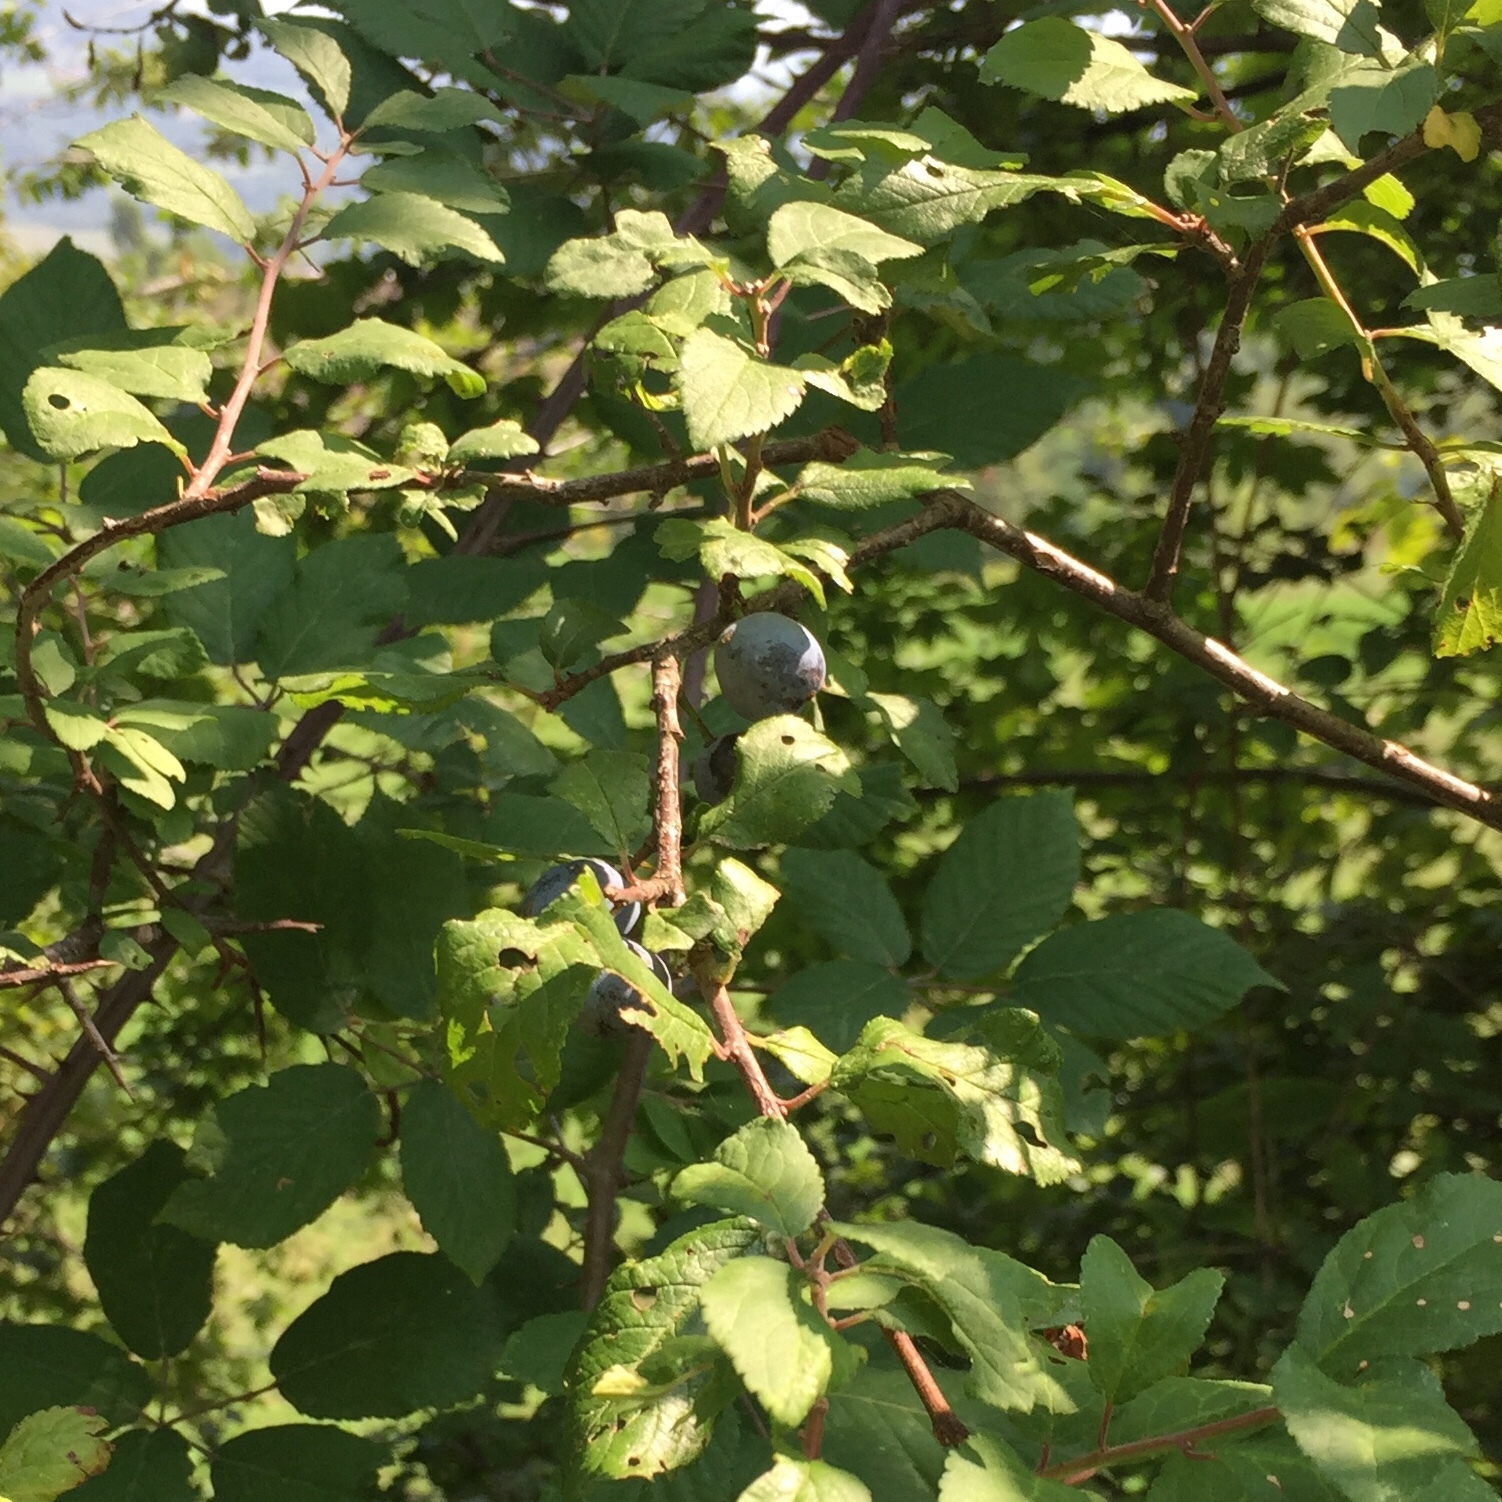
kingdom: Plantae
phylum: Tracheophyta
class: Magnoliopsida
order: Rosales
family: Rosaceae
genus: Prunus
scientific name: Prunus spinosa
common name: Blackthorn
